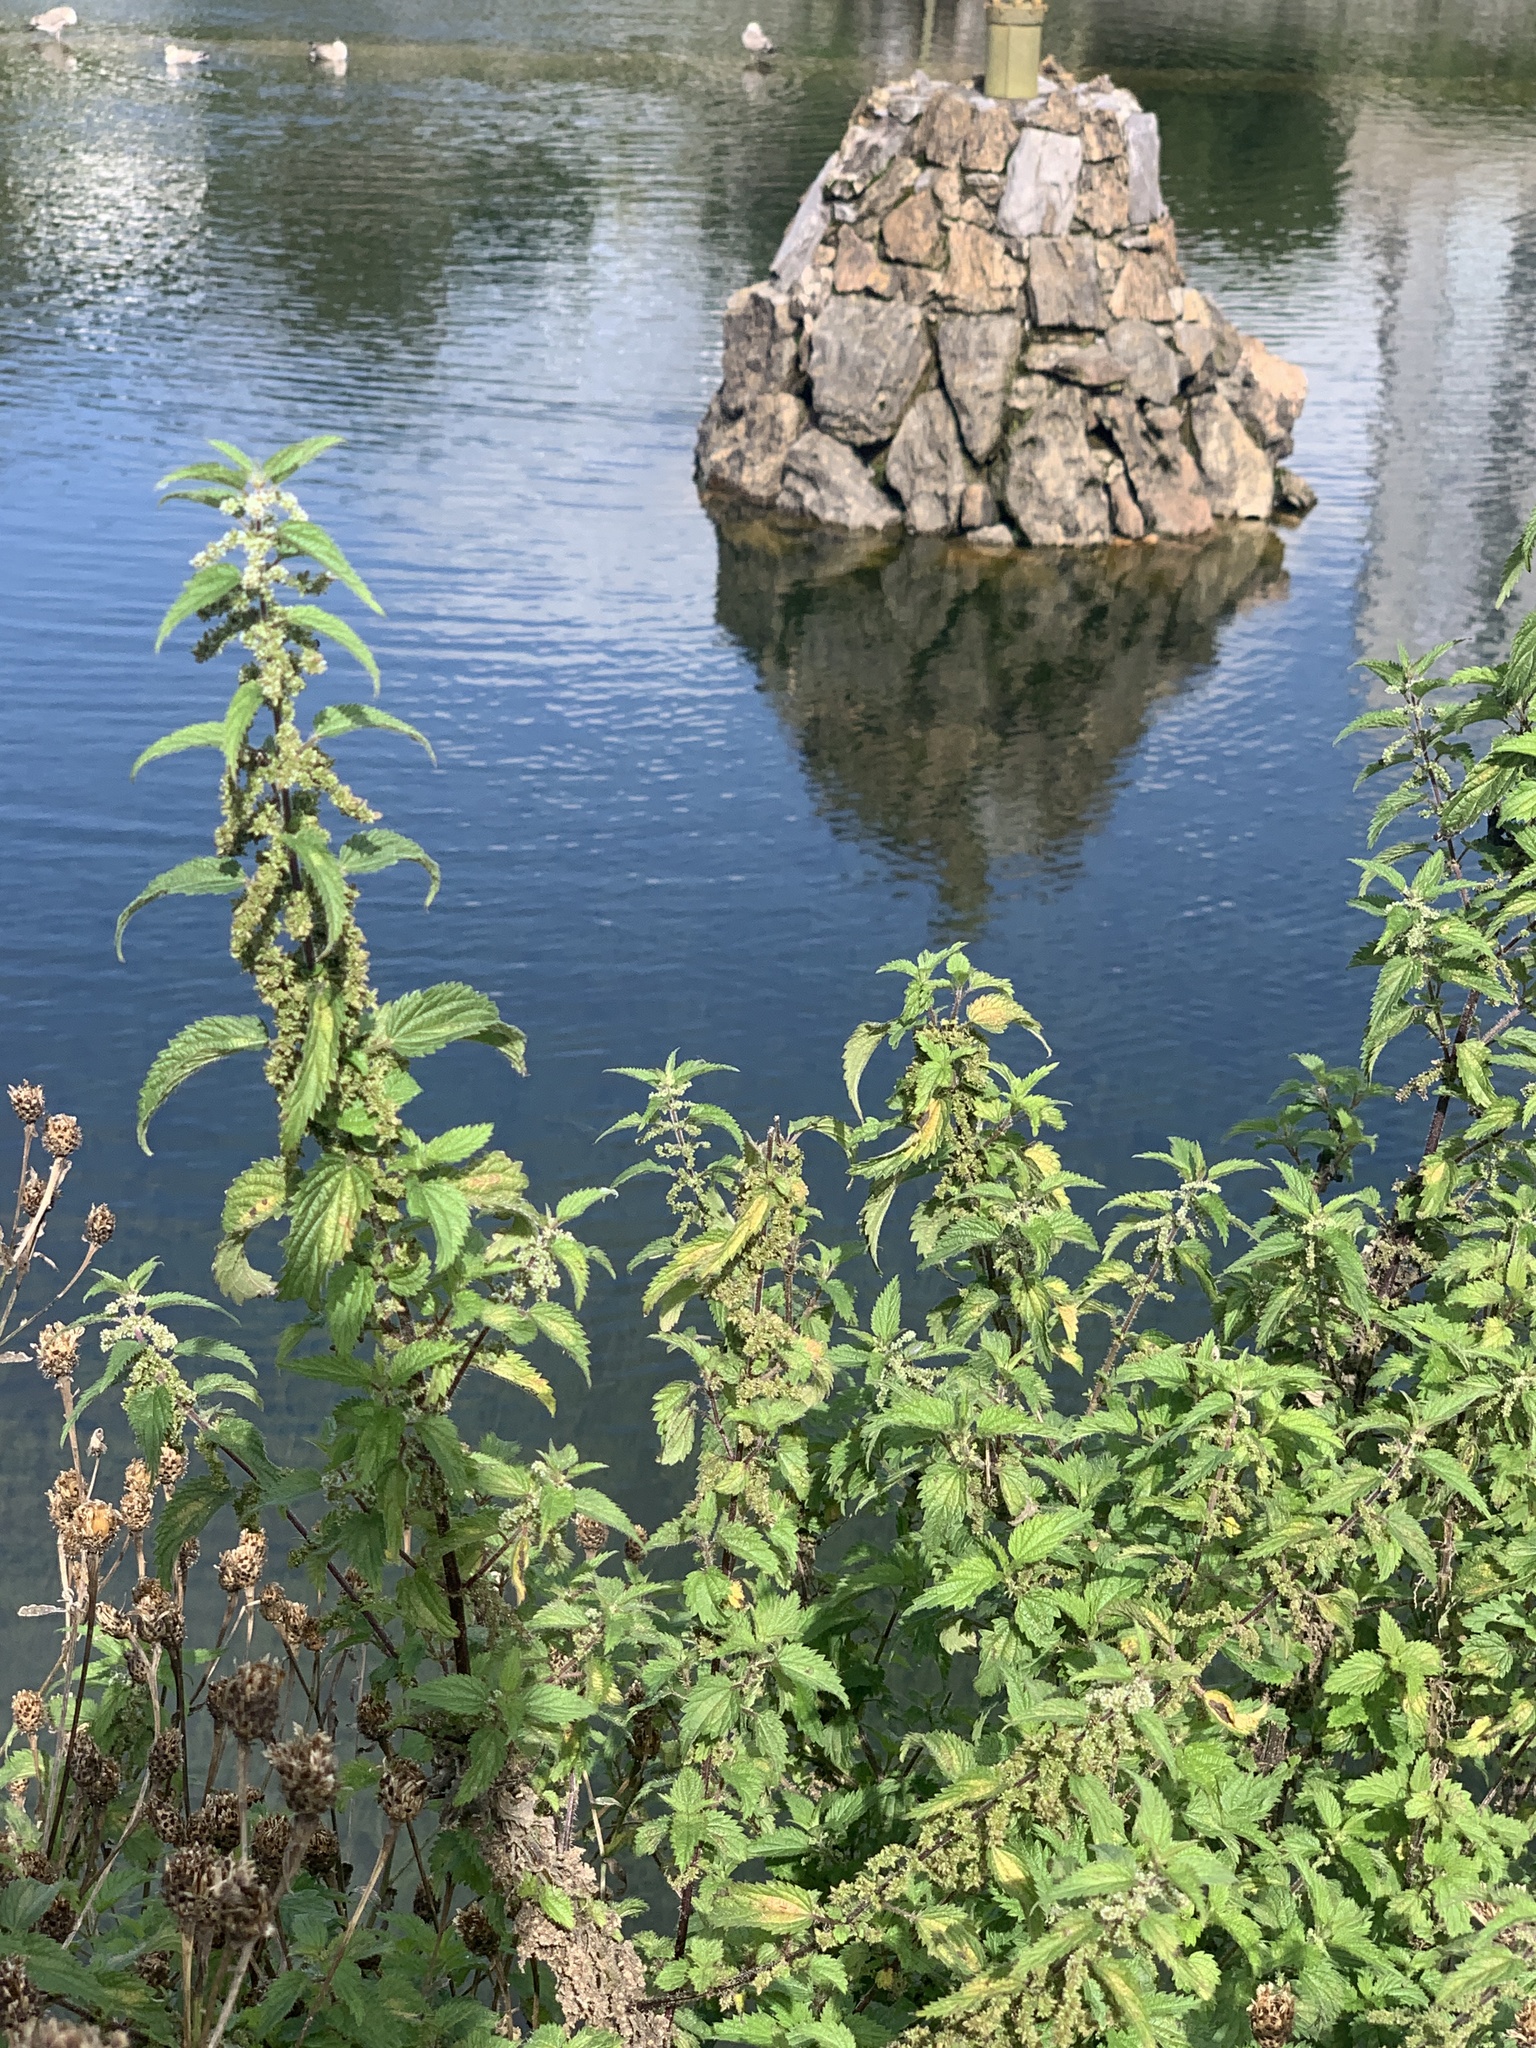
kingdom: Plantae
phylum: Tracheophyta
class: Magnoliopsida
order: Rosales
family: Urticaceae
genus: Urtica
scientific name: Urtica dioica
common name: Common nettle
